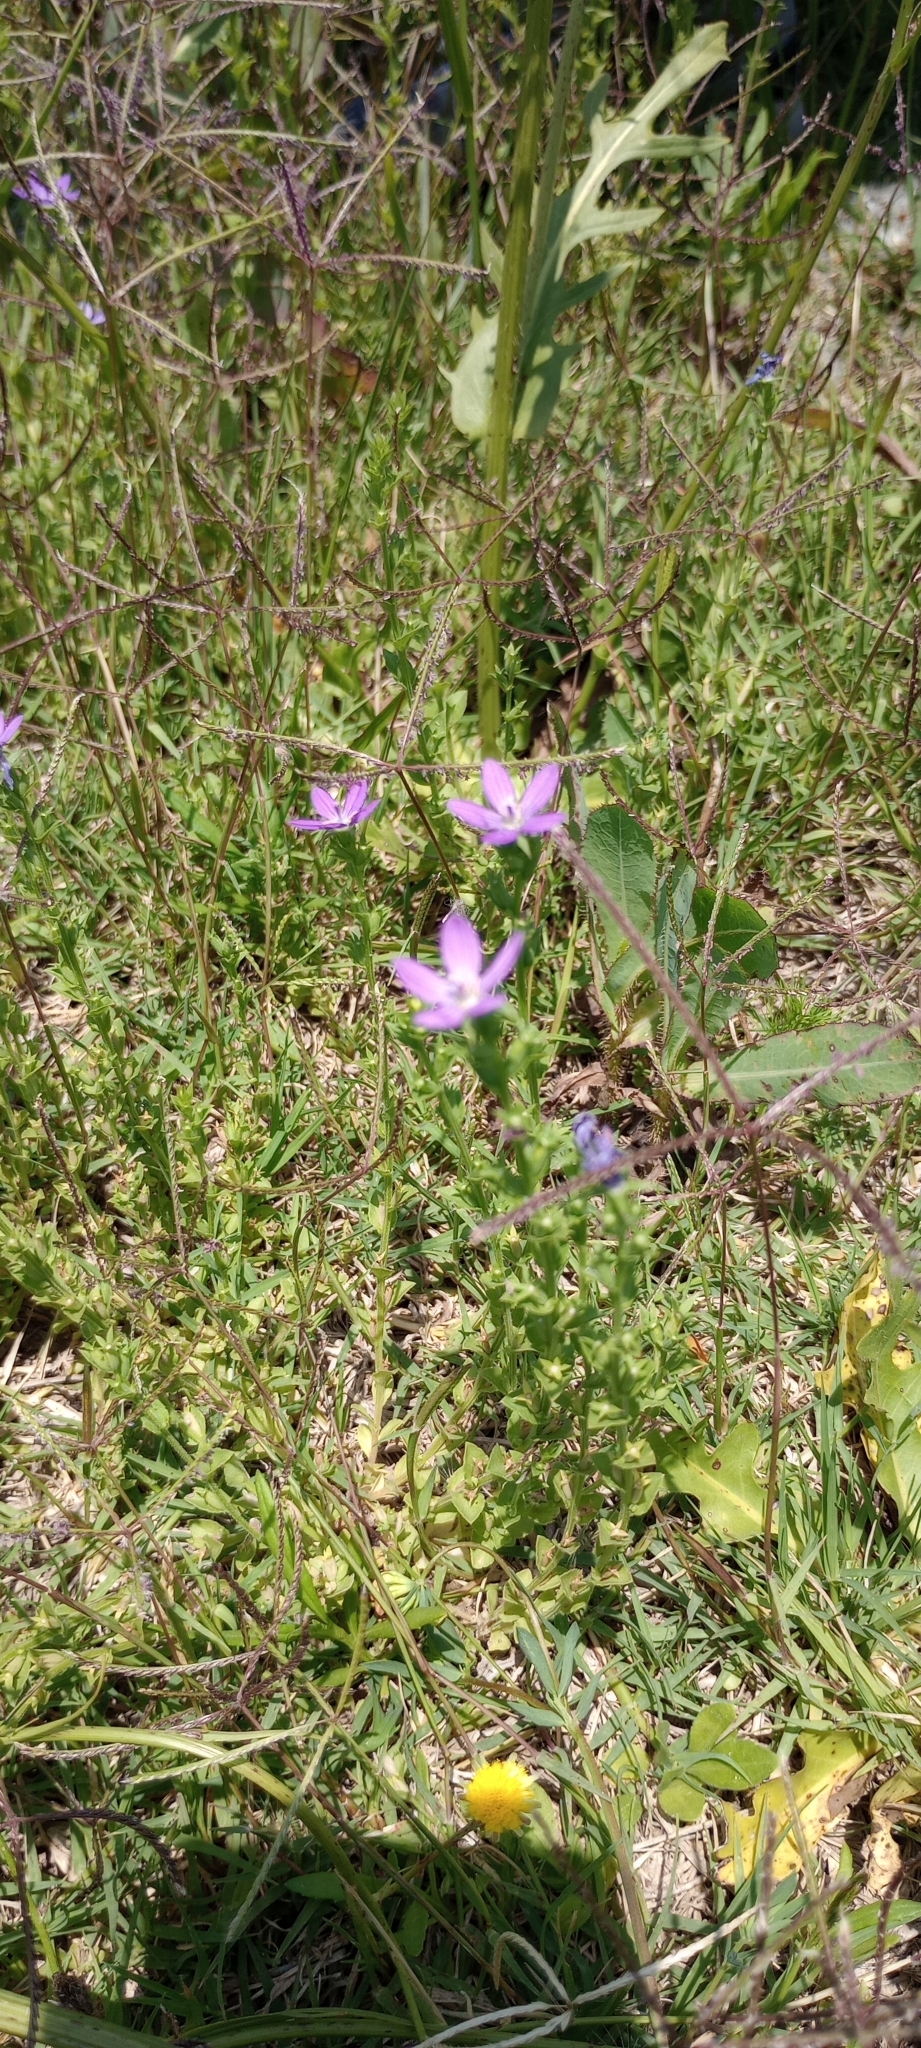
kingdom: Plantae
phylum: Tracheophyta
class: Magnoliopsida
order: Asterales
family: Campanulaceae
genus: Triodanis
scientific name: Triodanis biflora
